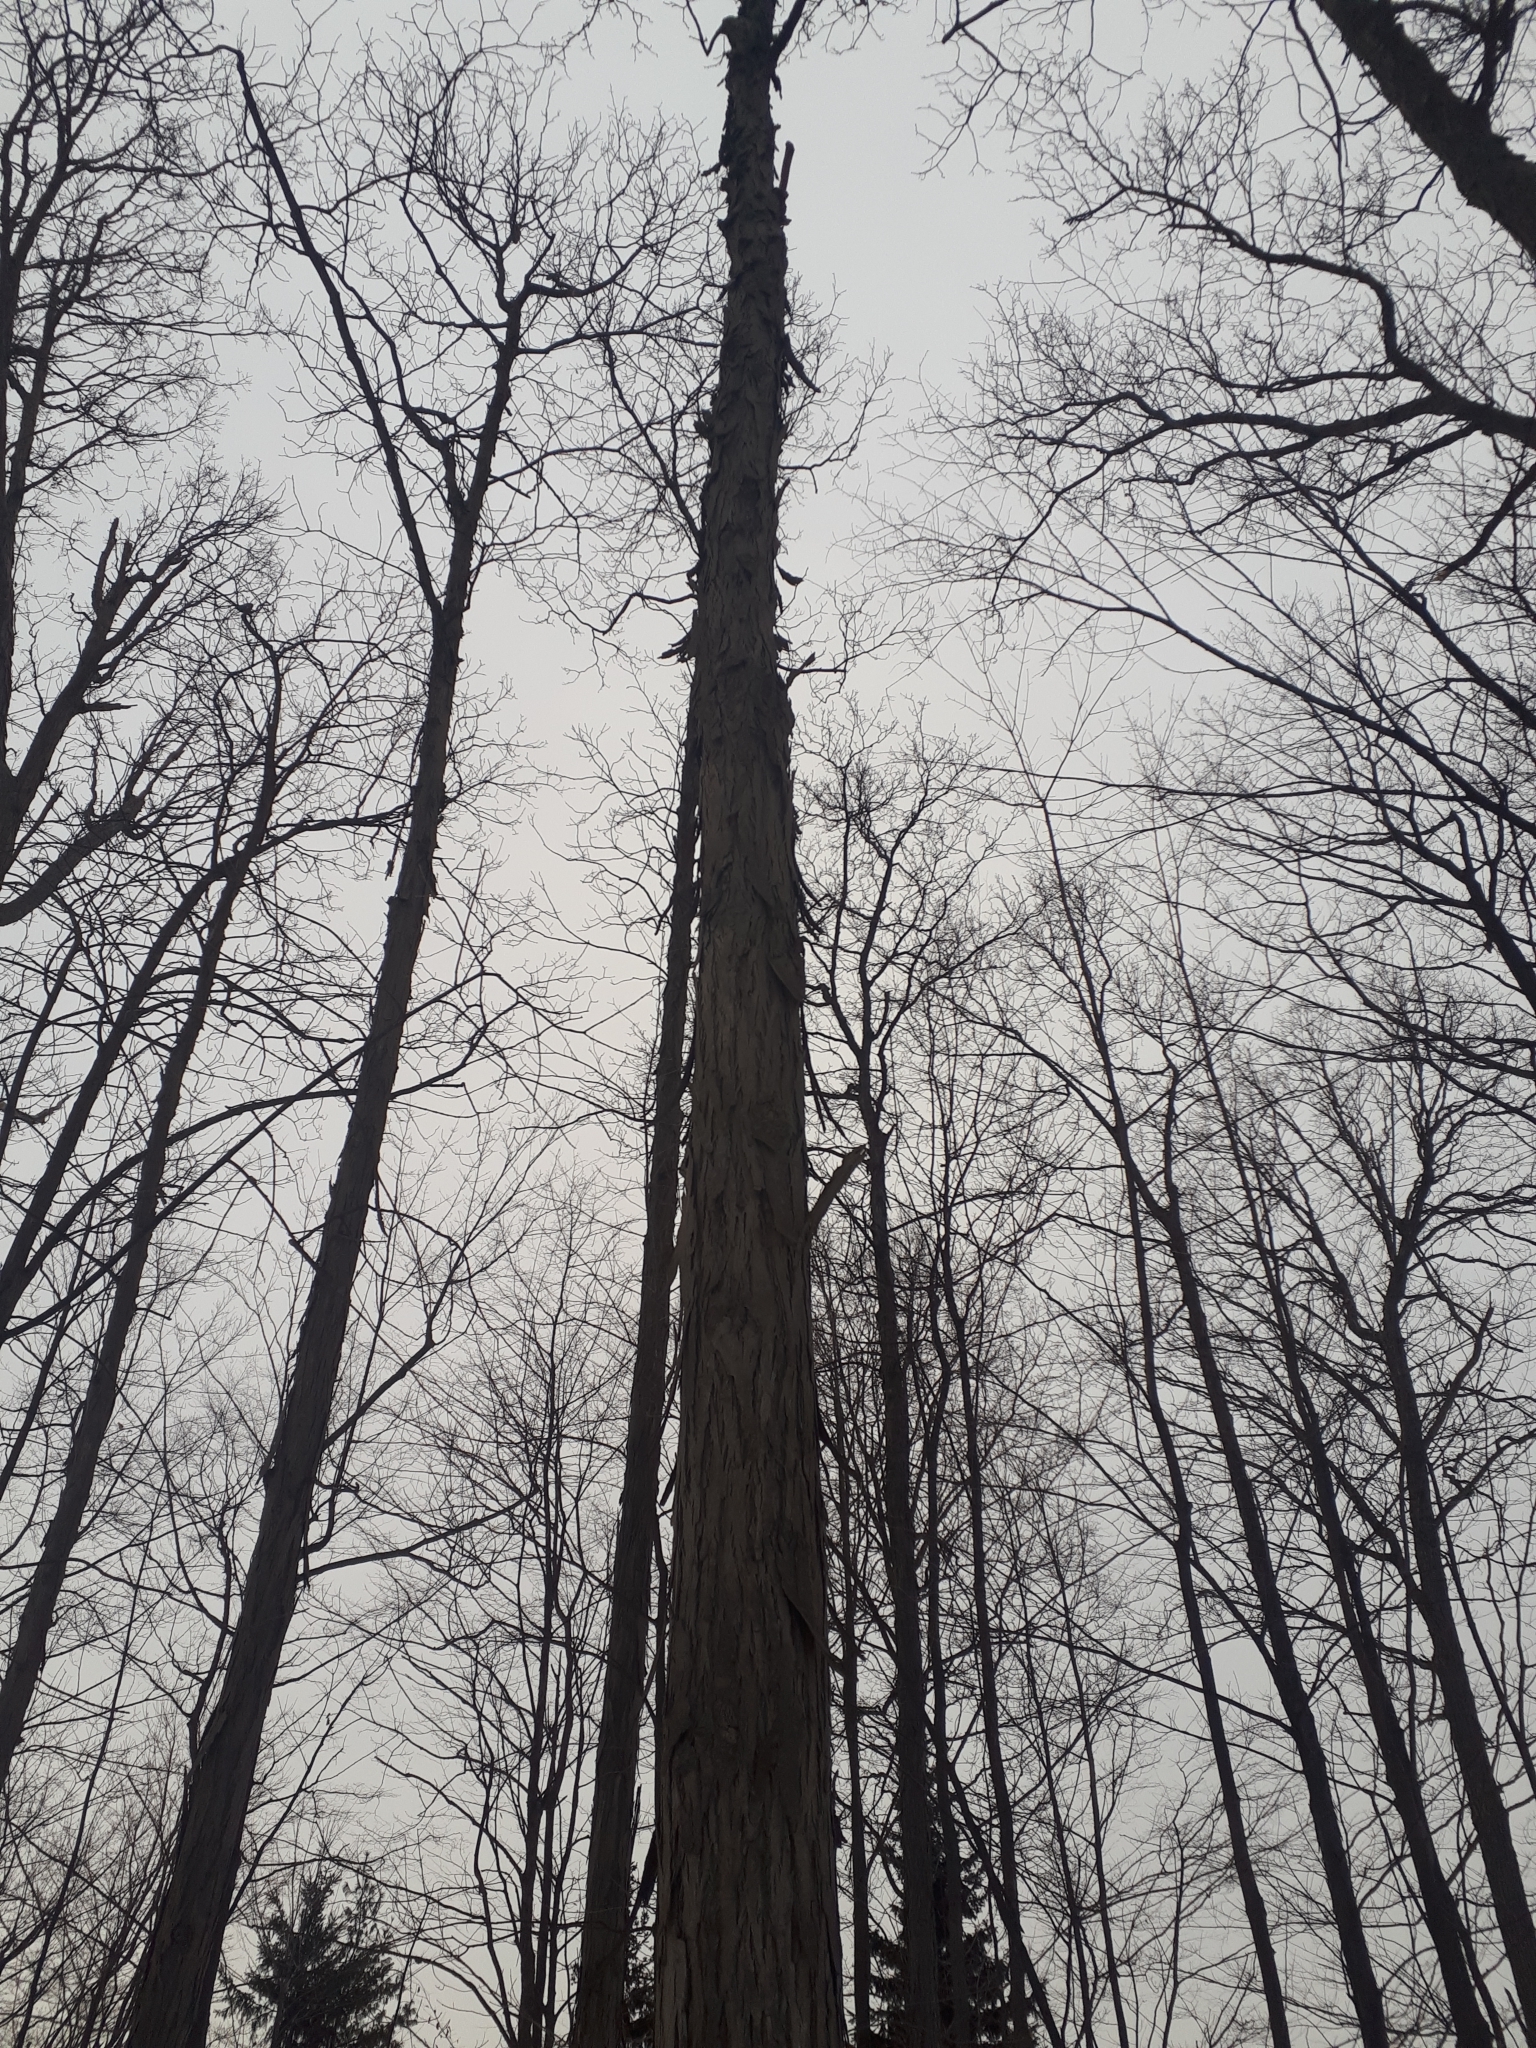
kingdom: Plantae
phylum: Tracheophyta
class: Magnoliopsida
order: Fagales
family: Juglandaceae
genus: Carya
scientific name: Carya ovata
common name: Shagbark hickory
